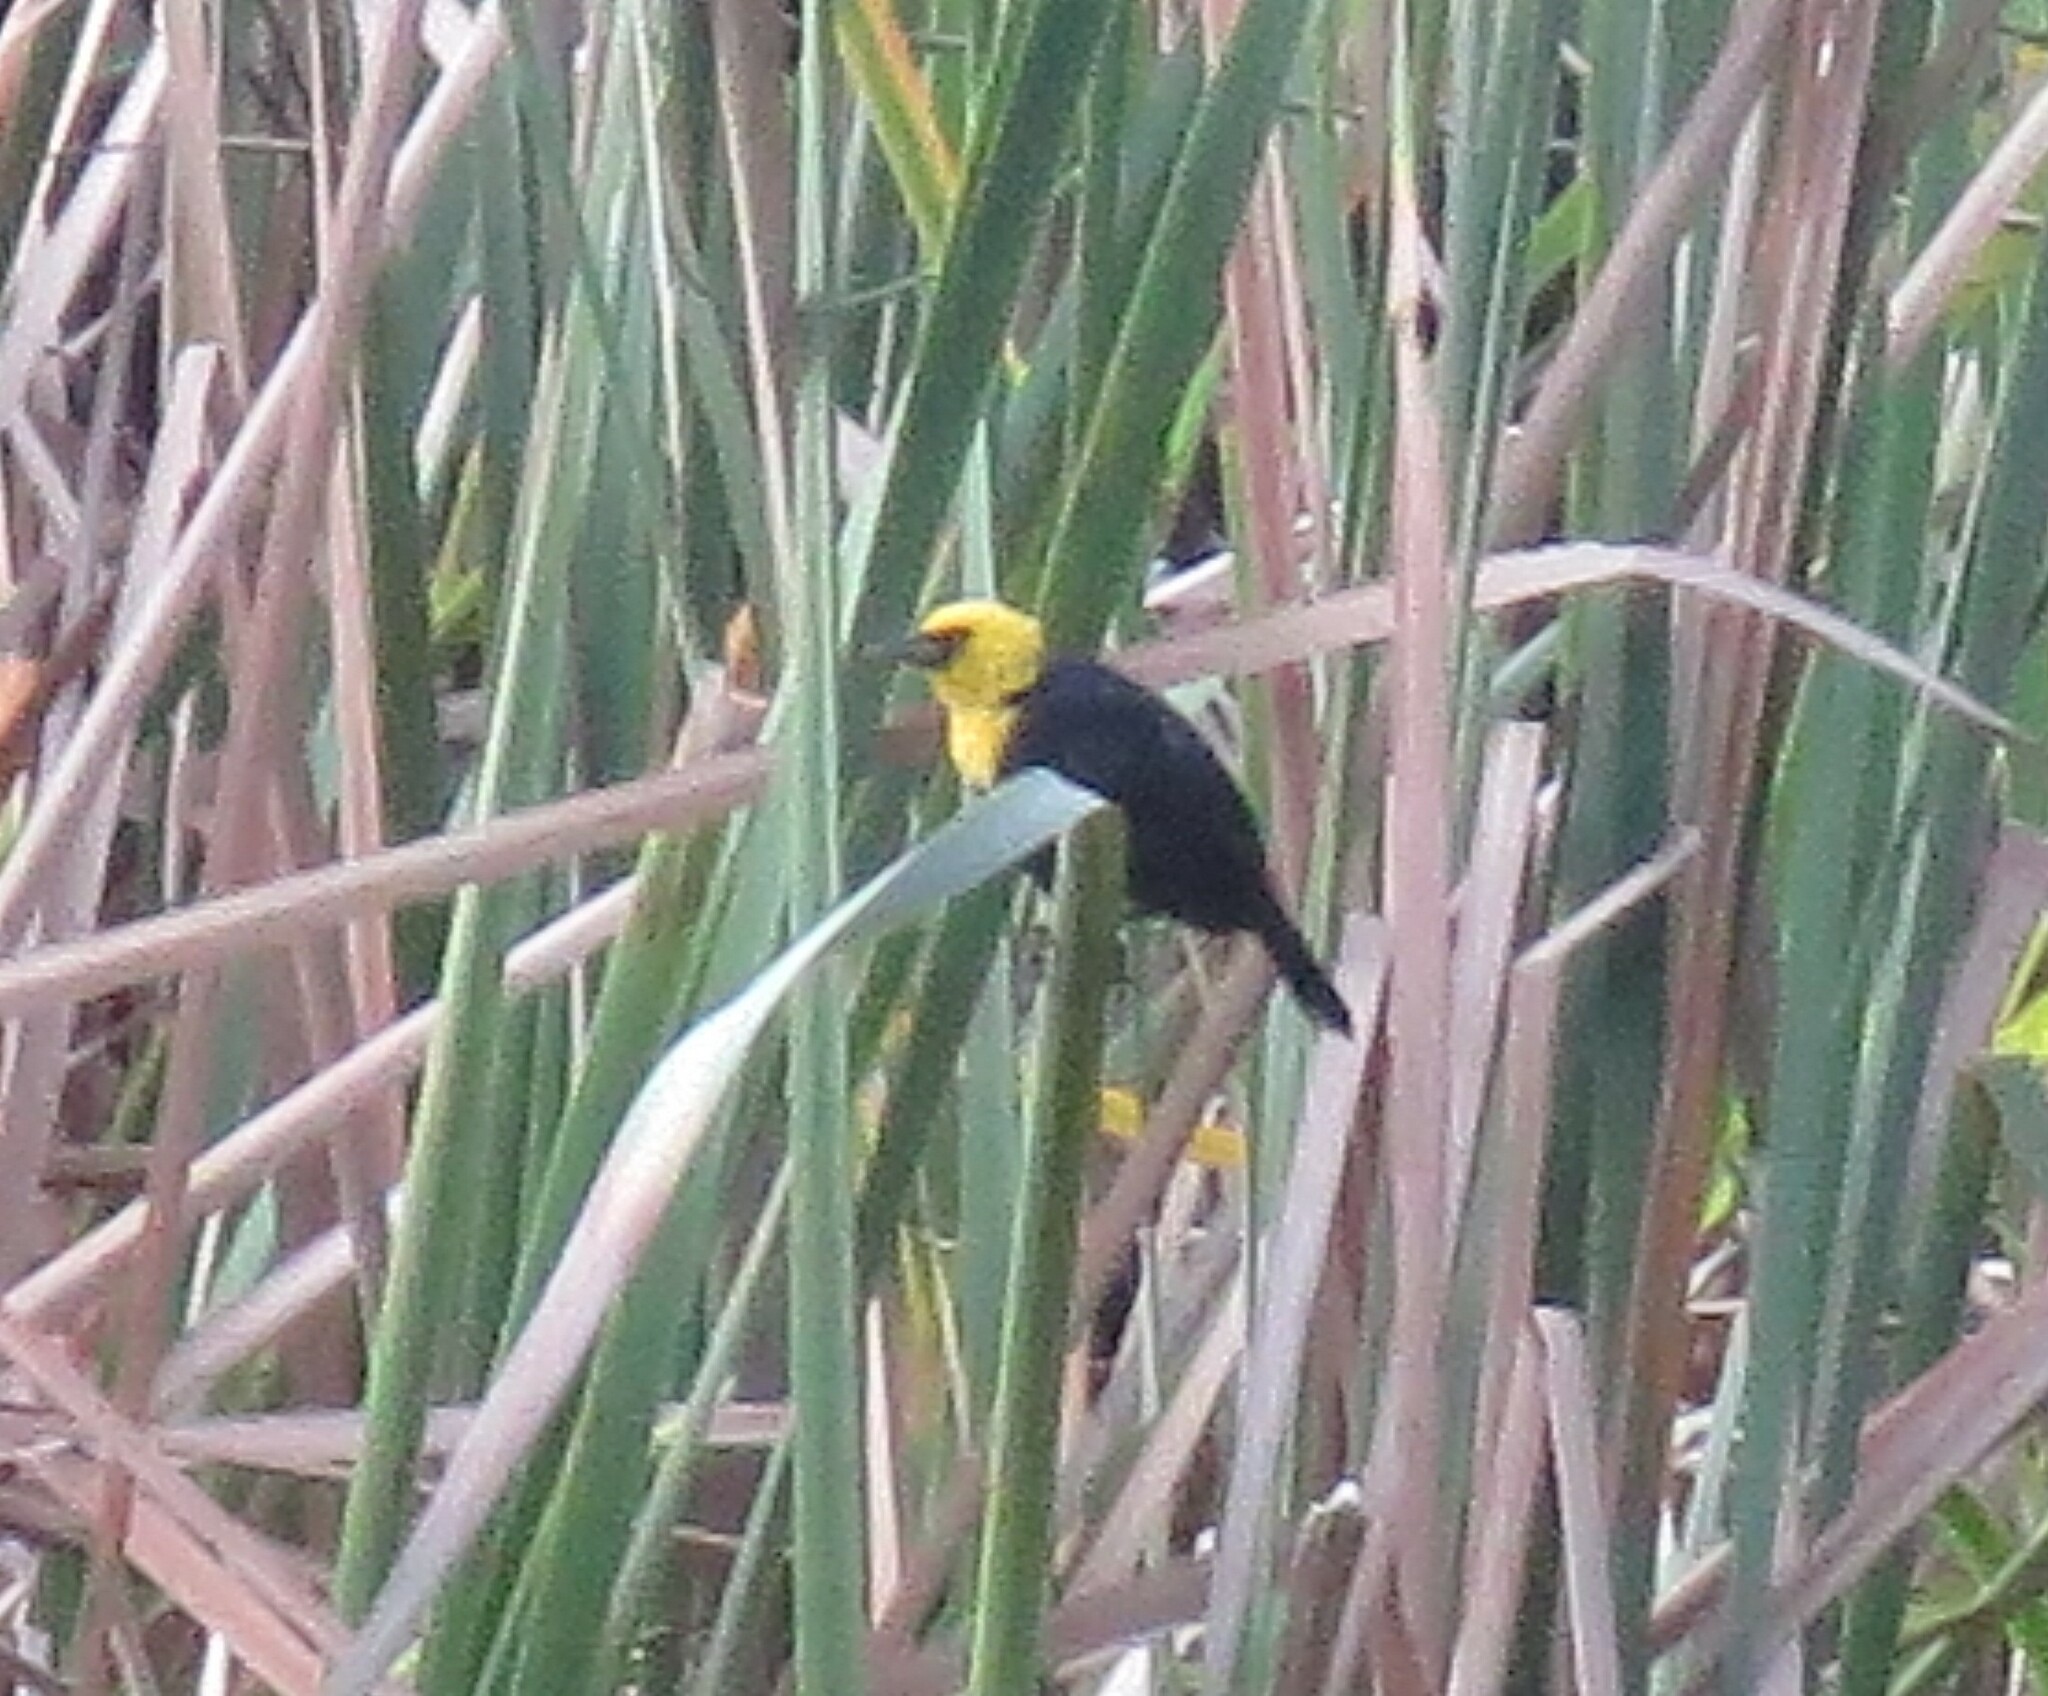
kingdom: Animalia
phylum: Chordata
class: Aves
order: Passeriformes
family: Icteridae
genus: Chrysomus
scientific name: Chrysomus icterocephalus
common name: Yellow-hooded blackbird
